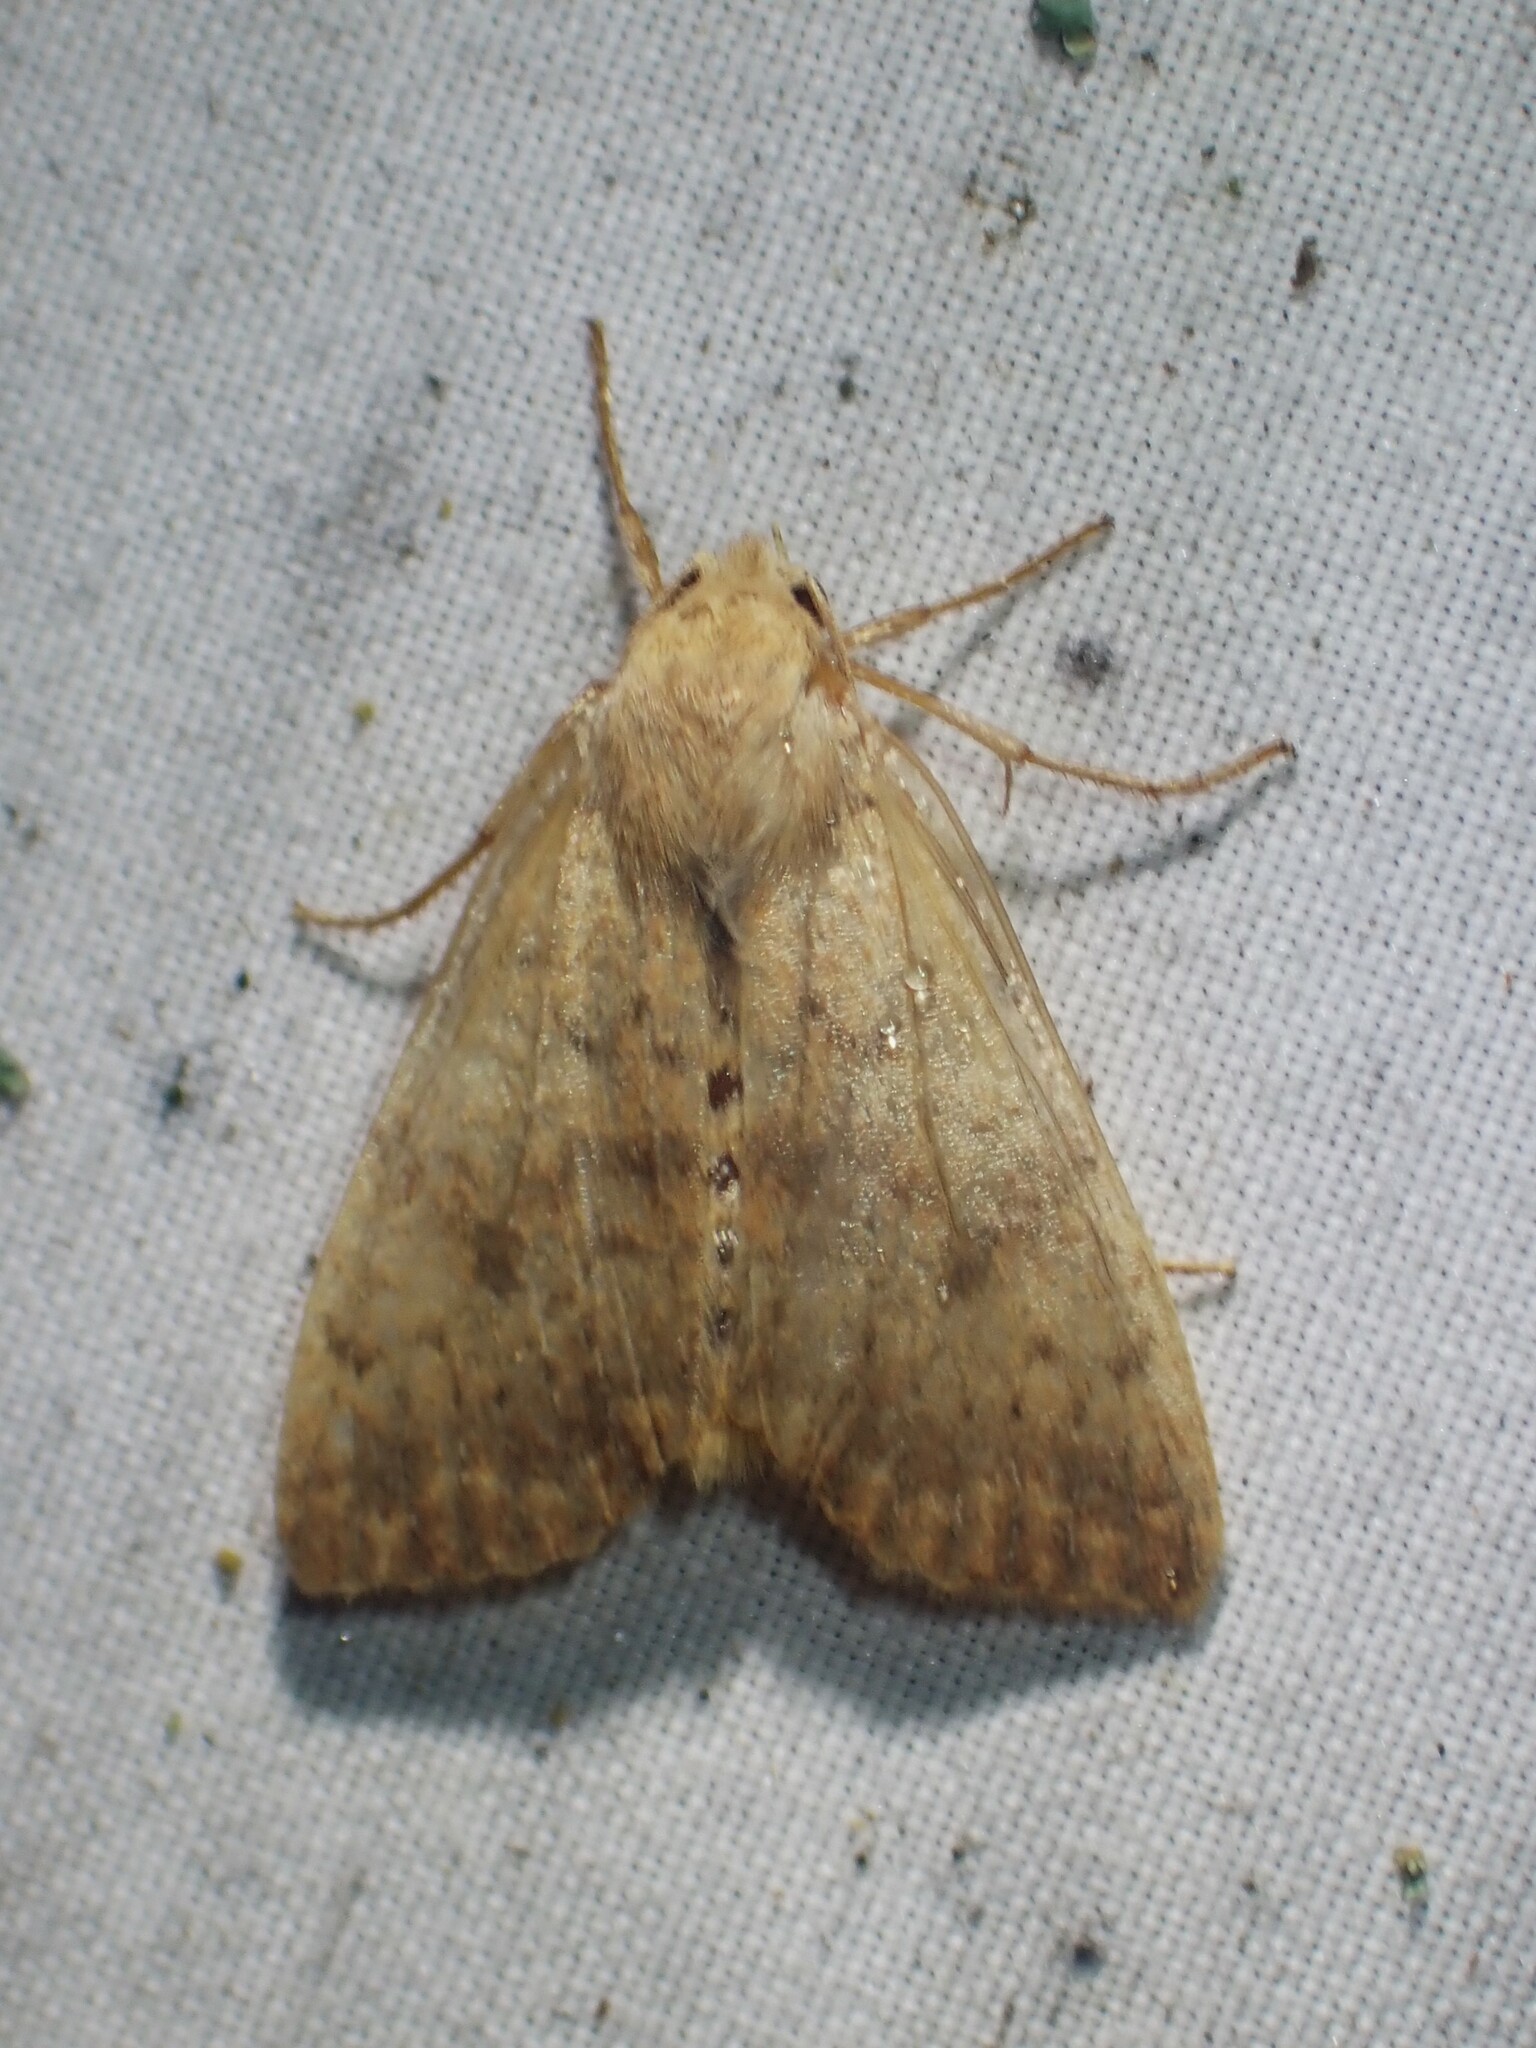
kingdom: Animalia
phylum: Arthropoda
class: Insecta
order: Lepidoptera
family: Noctuidae
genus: Anathix
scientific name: Anathix ralla
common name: Dotted sallow
